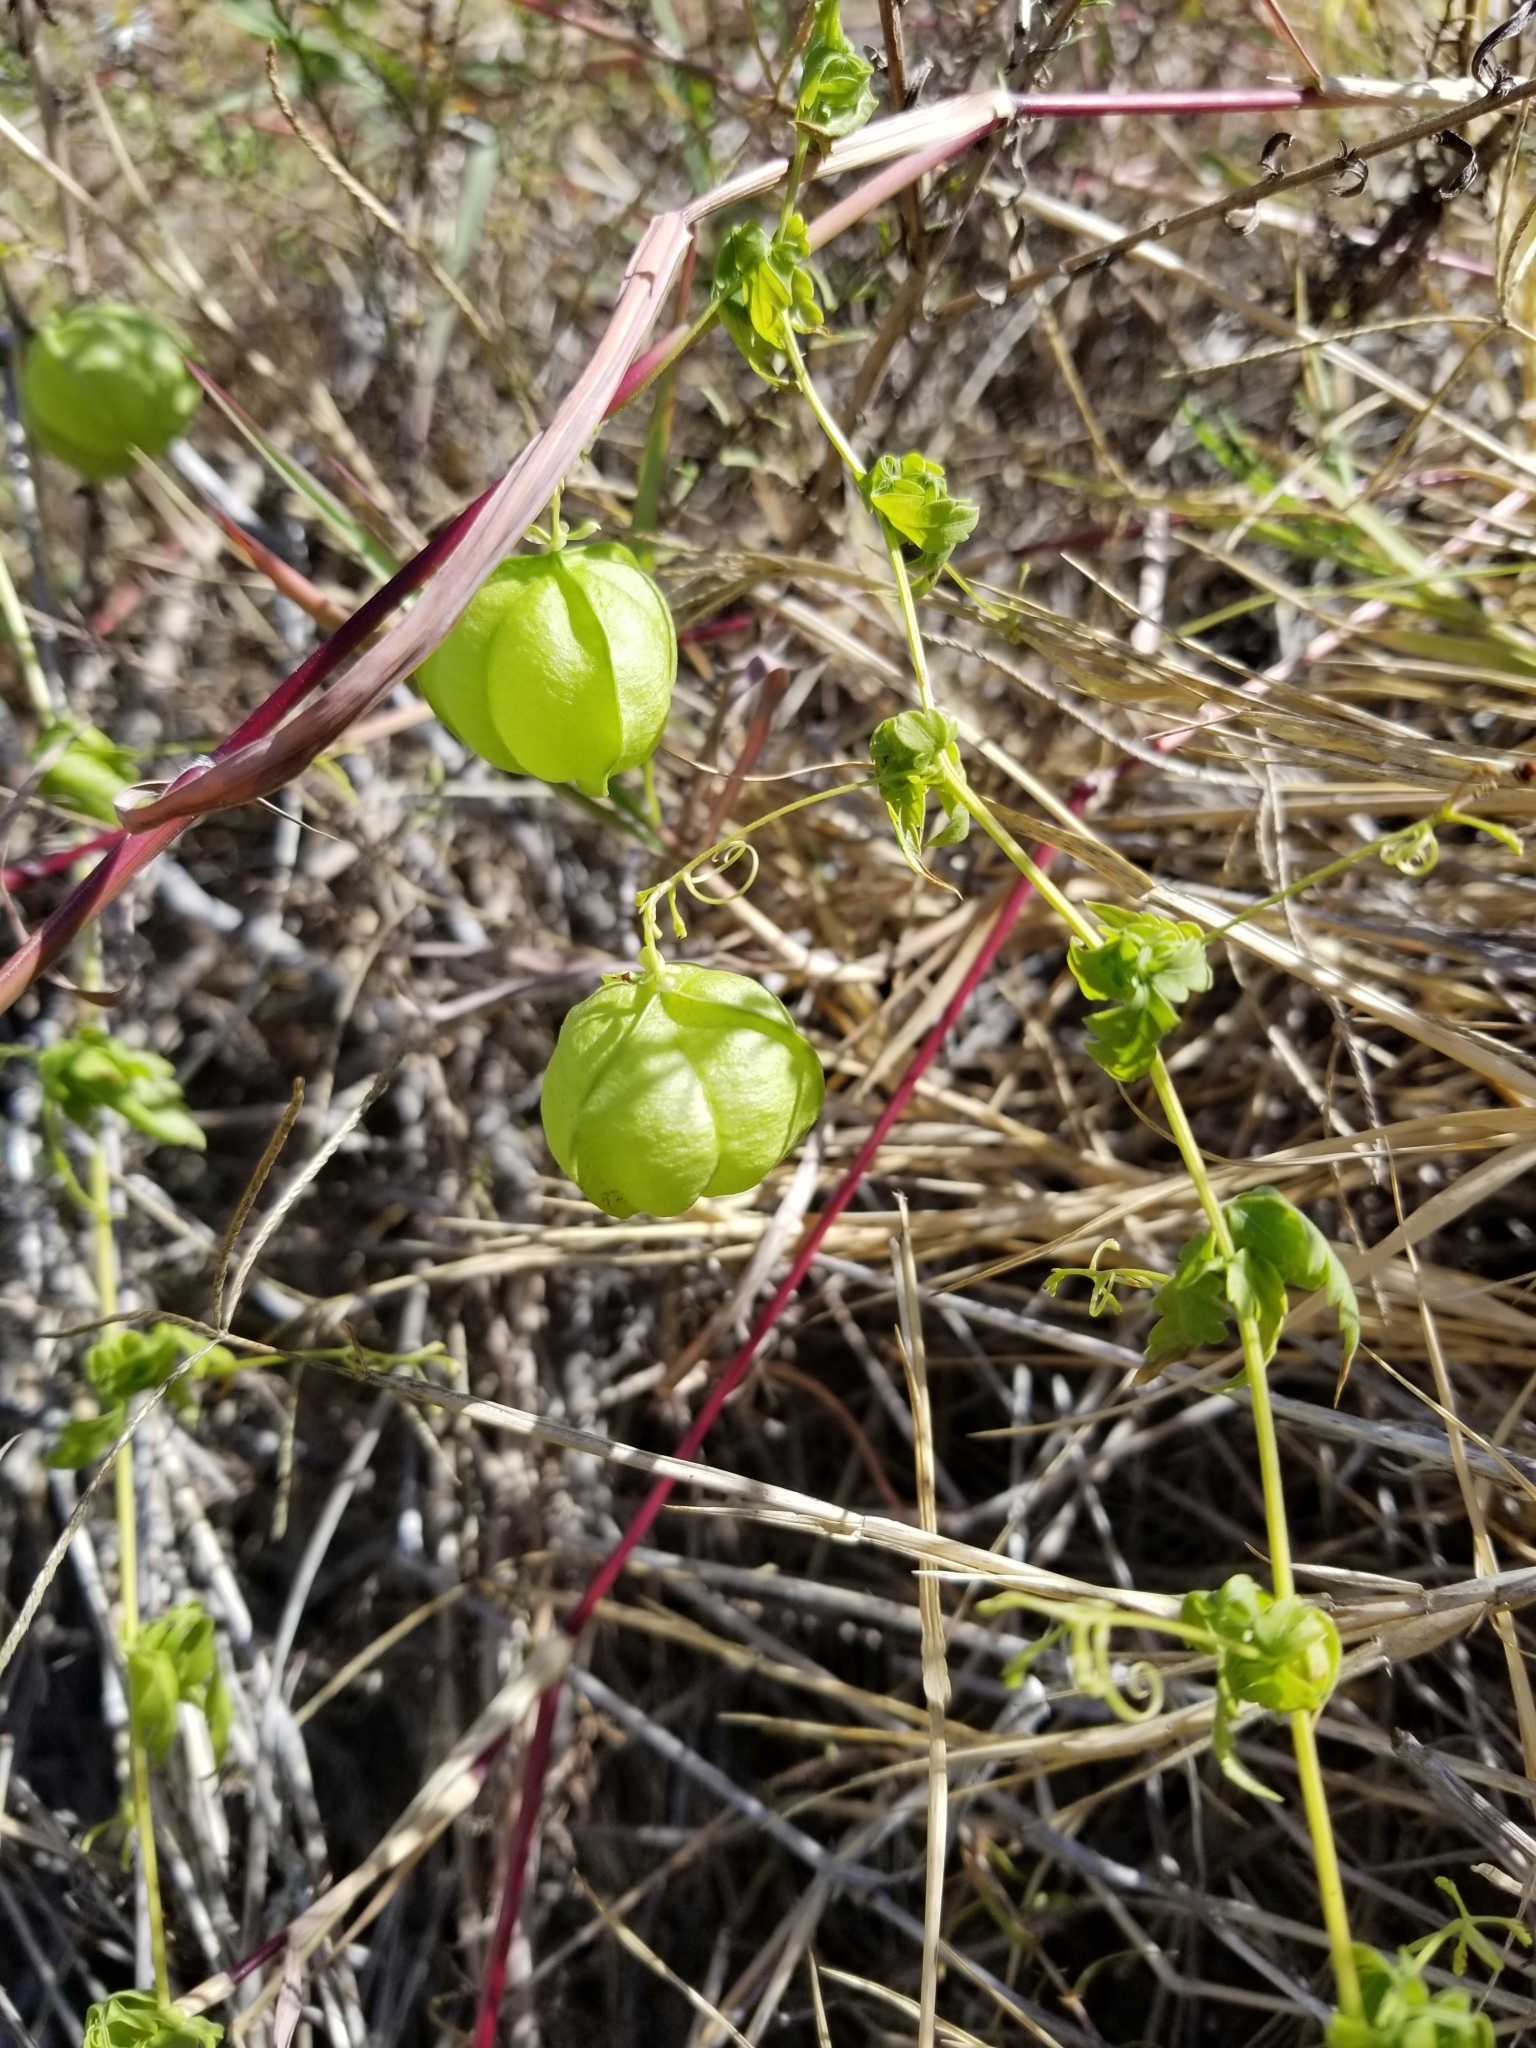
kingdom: Plantae
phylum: Tracheophyta
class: Magnoliopsida
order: Sapindales
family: Sapindaceae
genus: Cardiospermum
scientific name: Cardiospermum halicacabum
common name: Balloon vine
